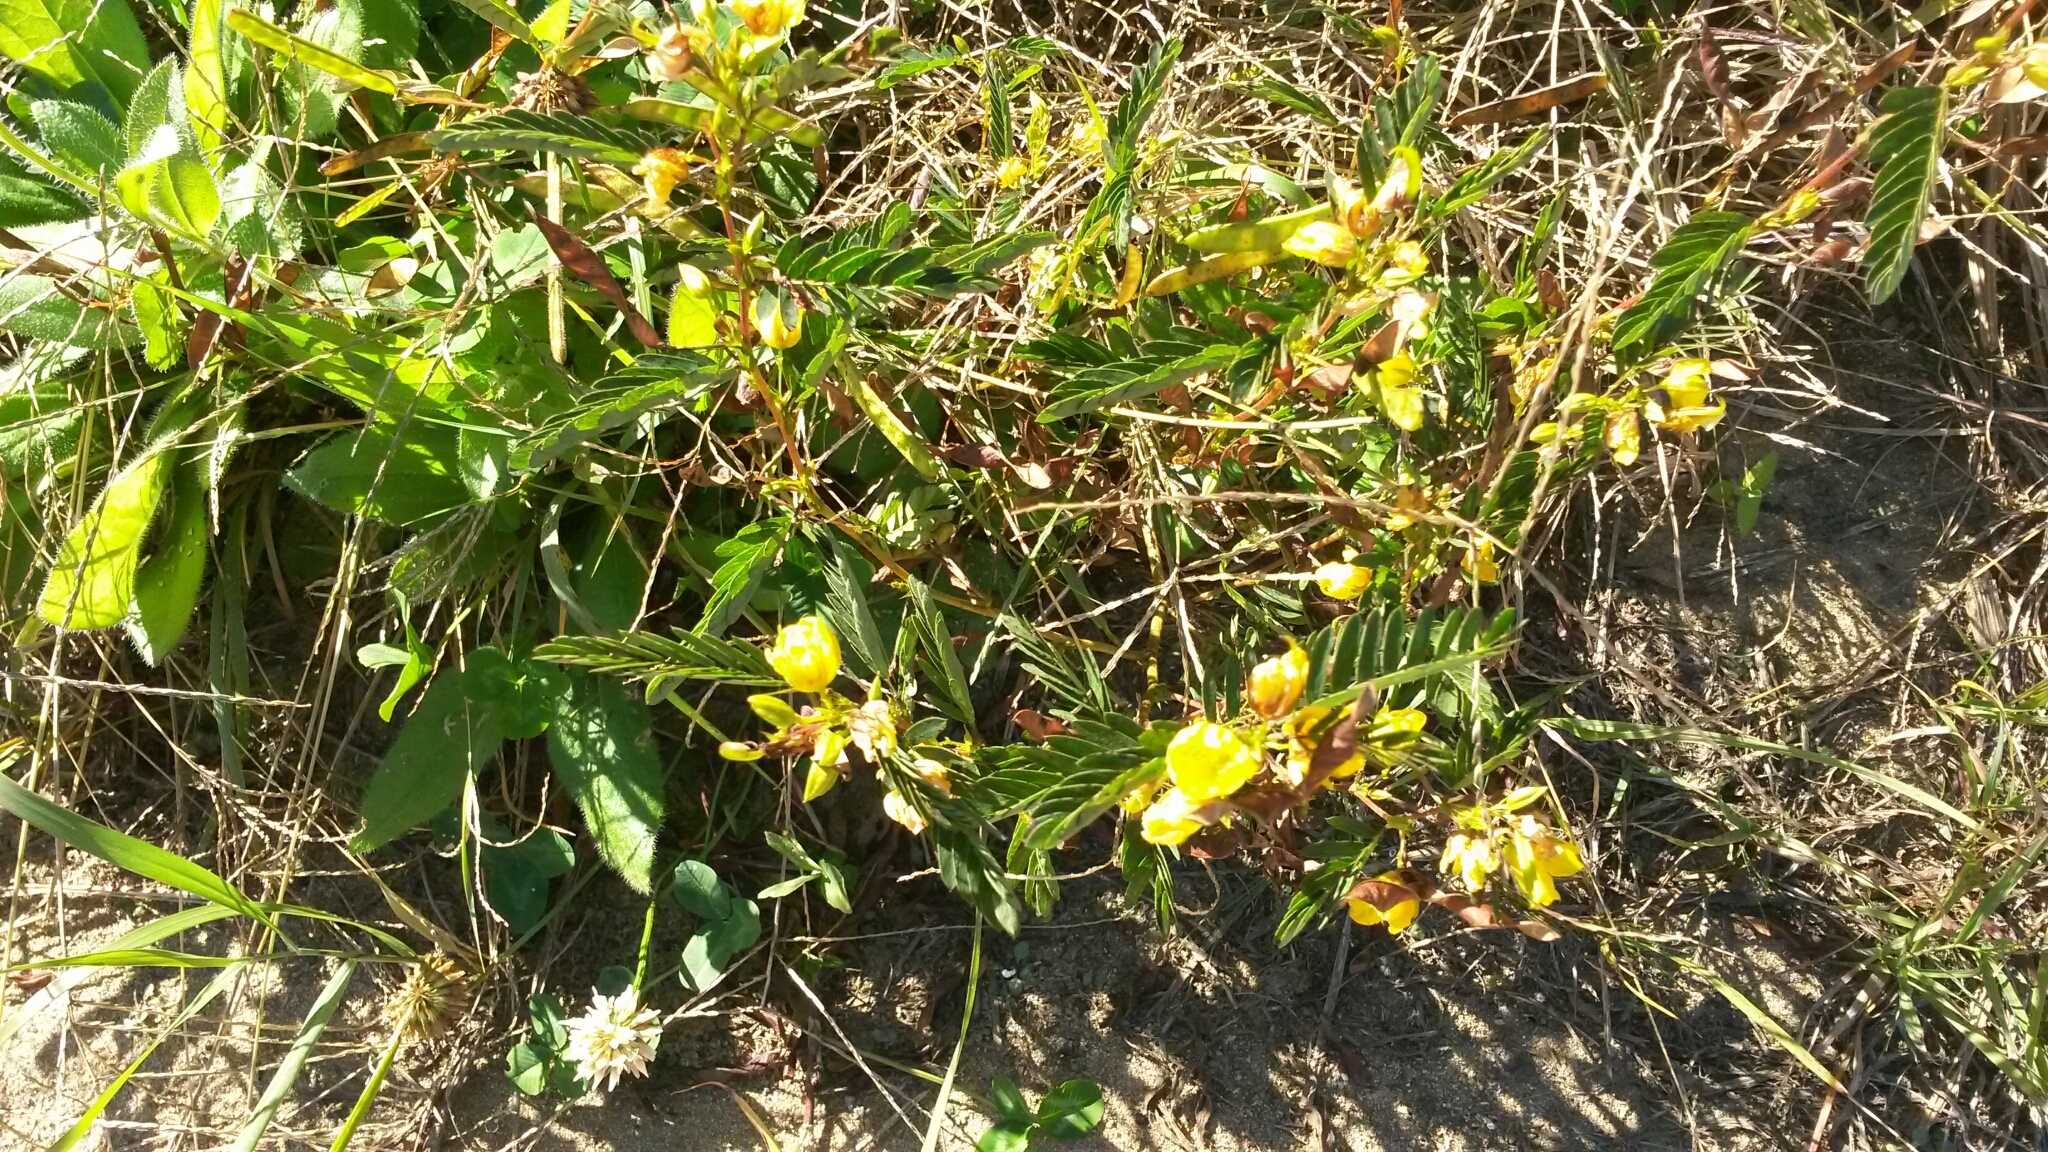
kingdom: Plantae
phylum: Tracheophyta
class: Magnoliopsida
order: Fabales
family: Fabaceae
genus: Chamaecrista
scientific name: Chamaecrista fasciculata
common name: Golden cassia
